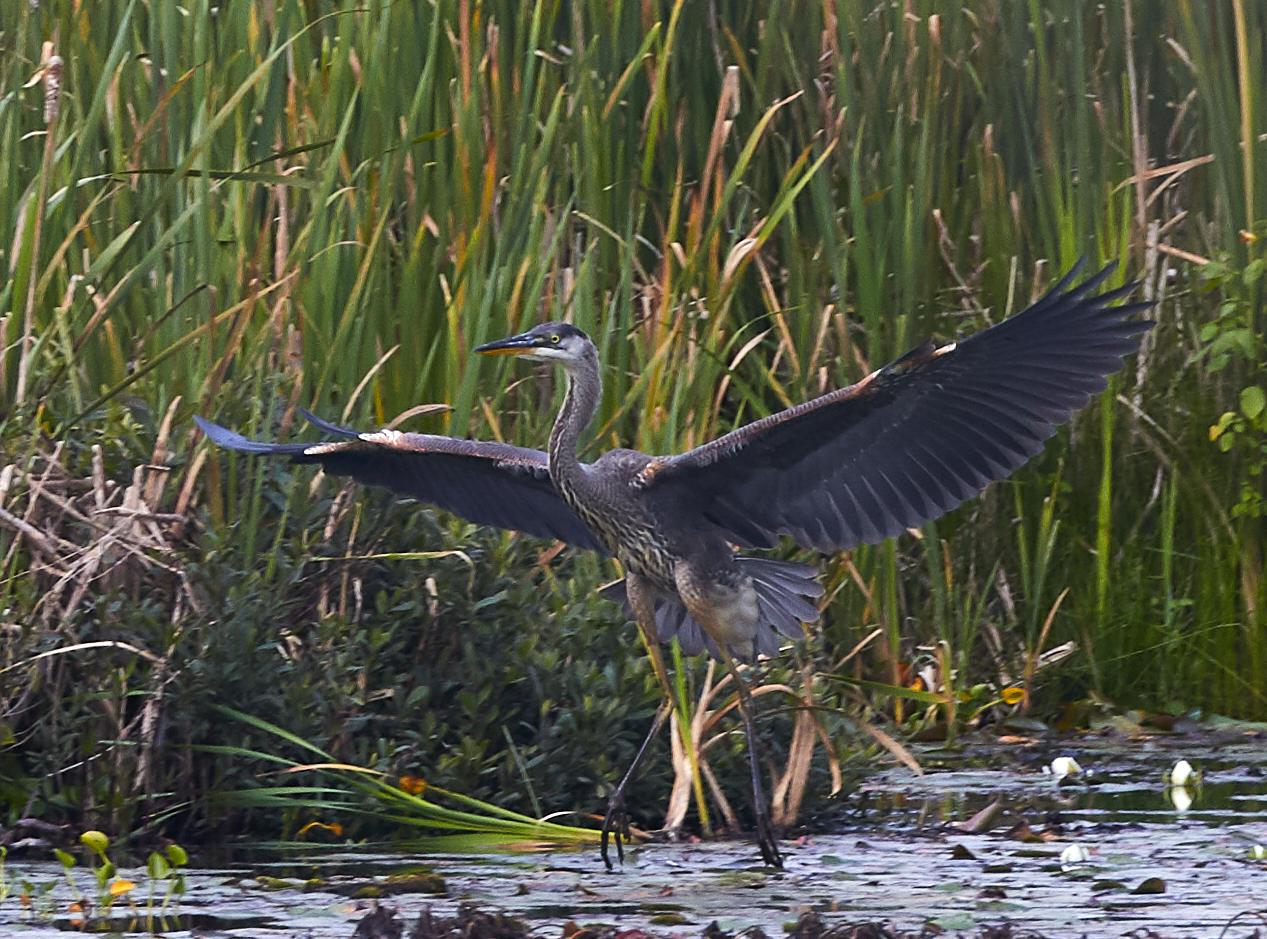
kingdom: Animalia
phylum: Chordata
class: Aves
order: Pelecaniformes
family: Ardeidae
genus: Ardea
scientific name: Ardea herodias
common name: Great blue heron
